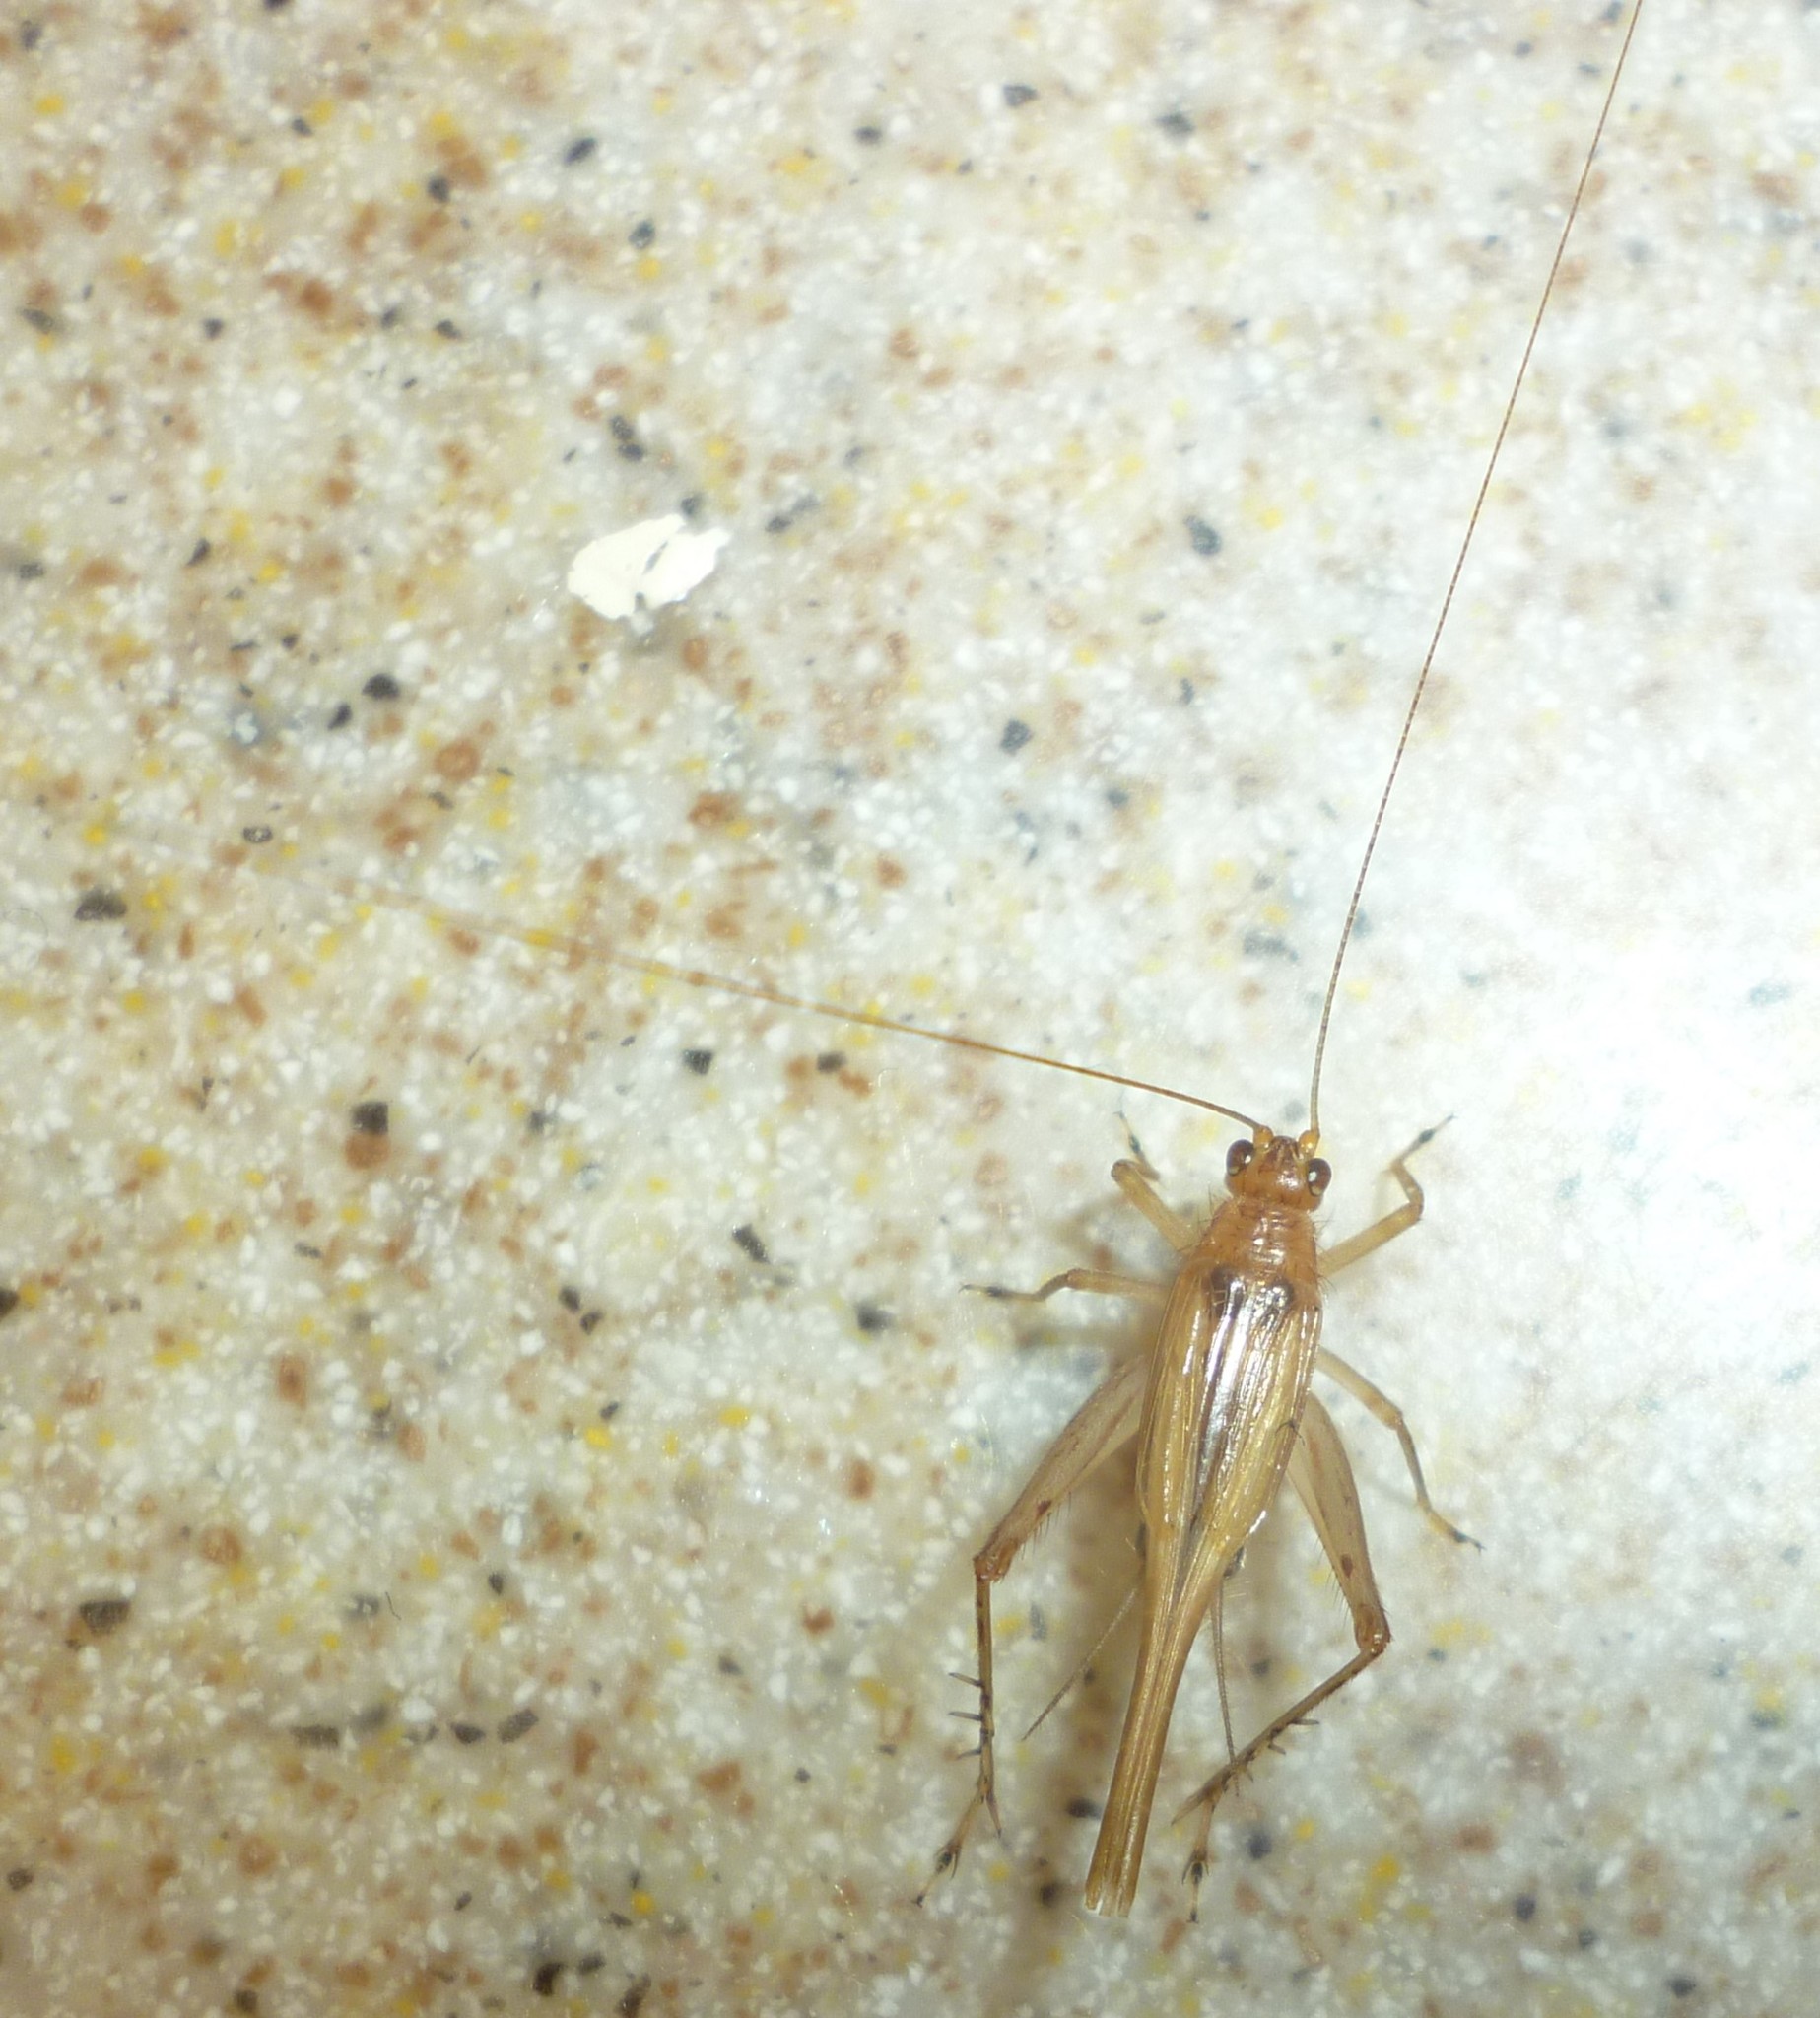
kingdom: Animalia
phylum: Arthropoda
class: Insecta
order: Orthoptera
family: Trigonidiidae
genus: Anaxipha
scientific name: Anaxipha exigua
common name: Say's bush cricket
